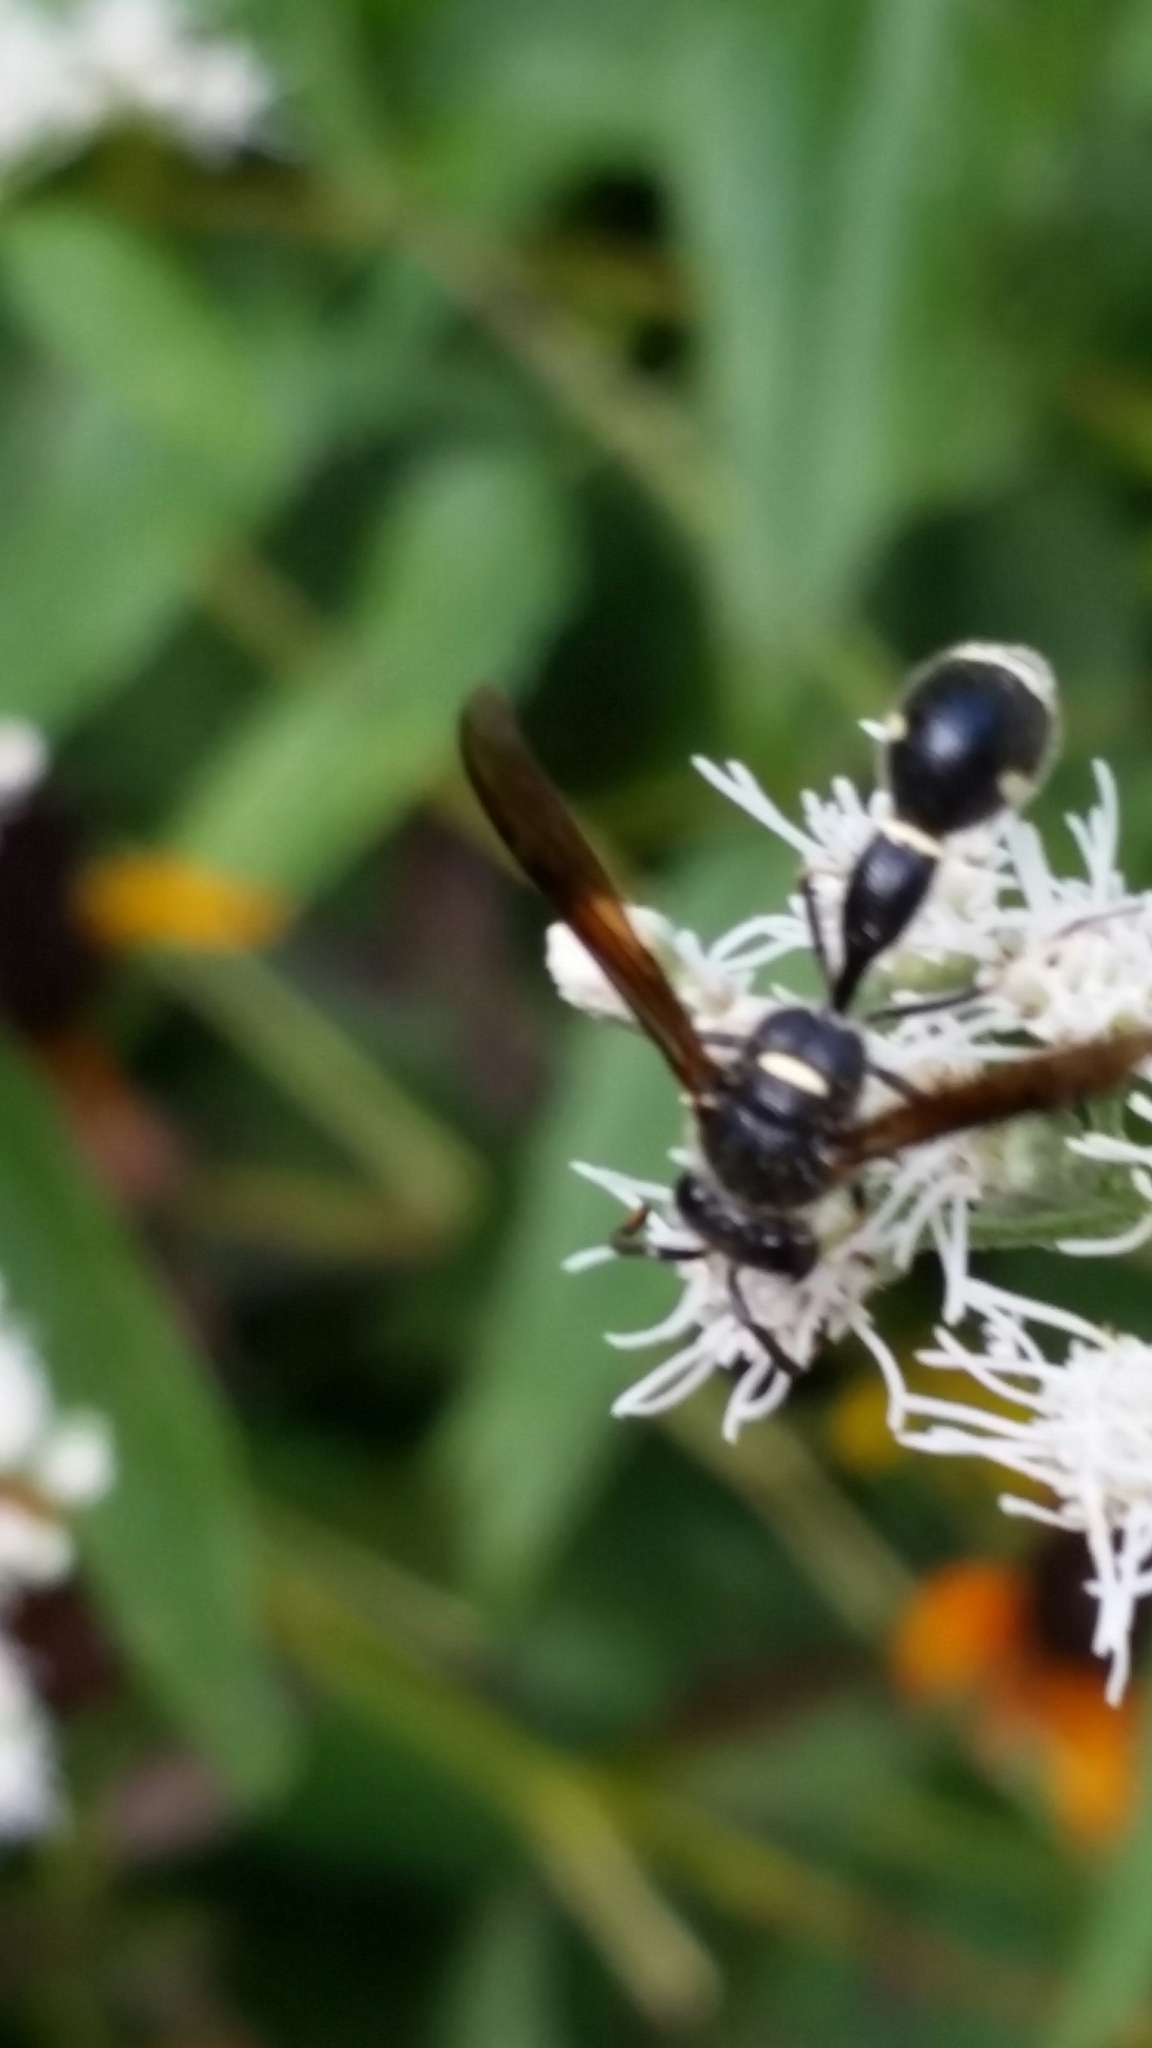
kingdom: Animalia
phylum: Arthropoda
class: Insecta
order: Hymenoptera
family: Vespidae
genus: Eumenes
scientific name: Eumenes fraternus
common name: Fraternal potter wasp
